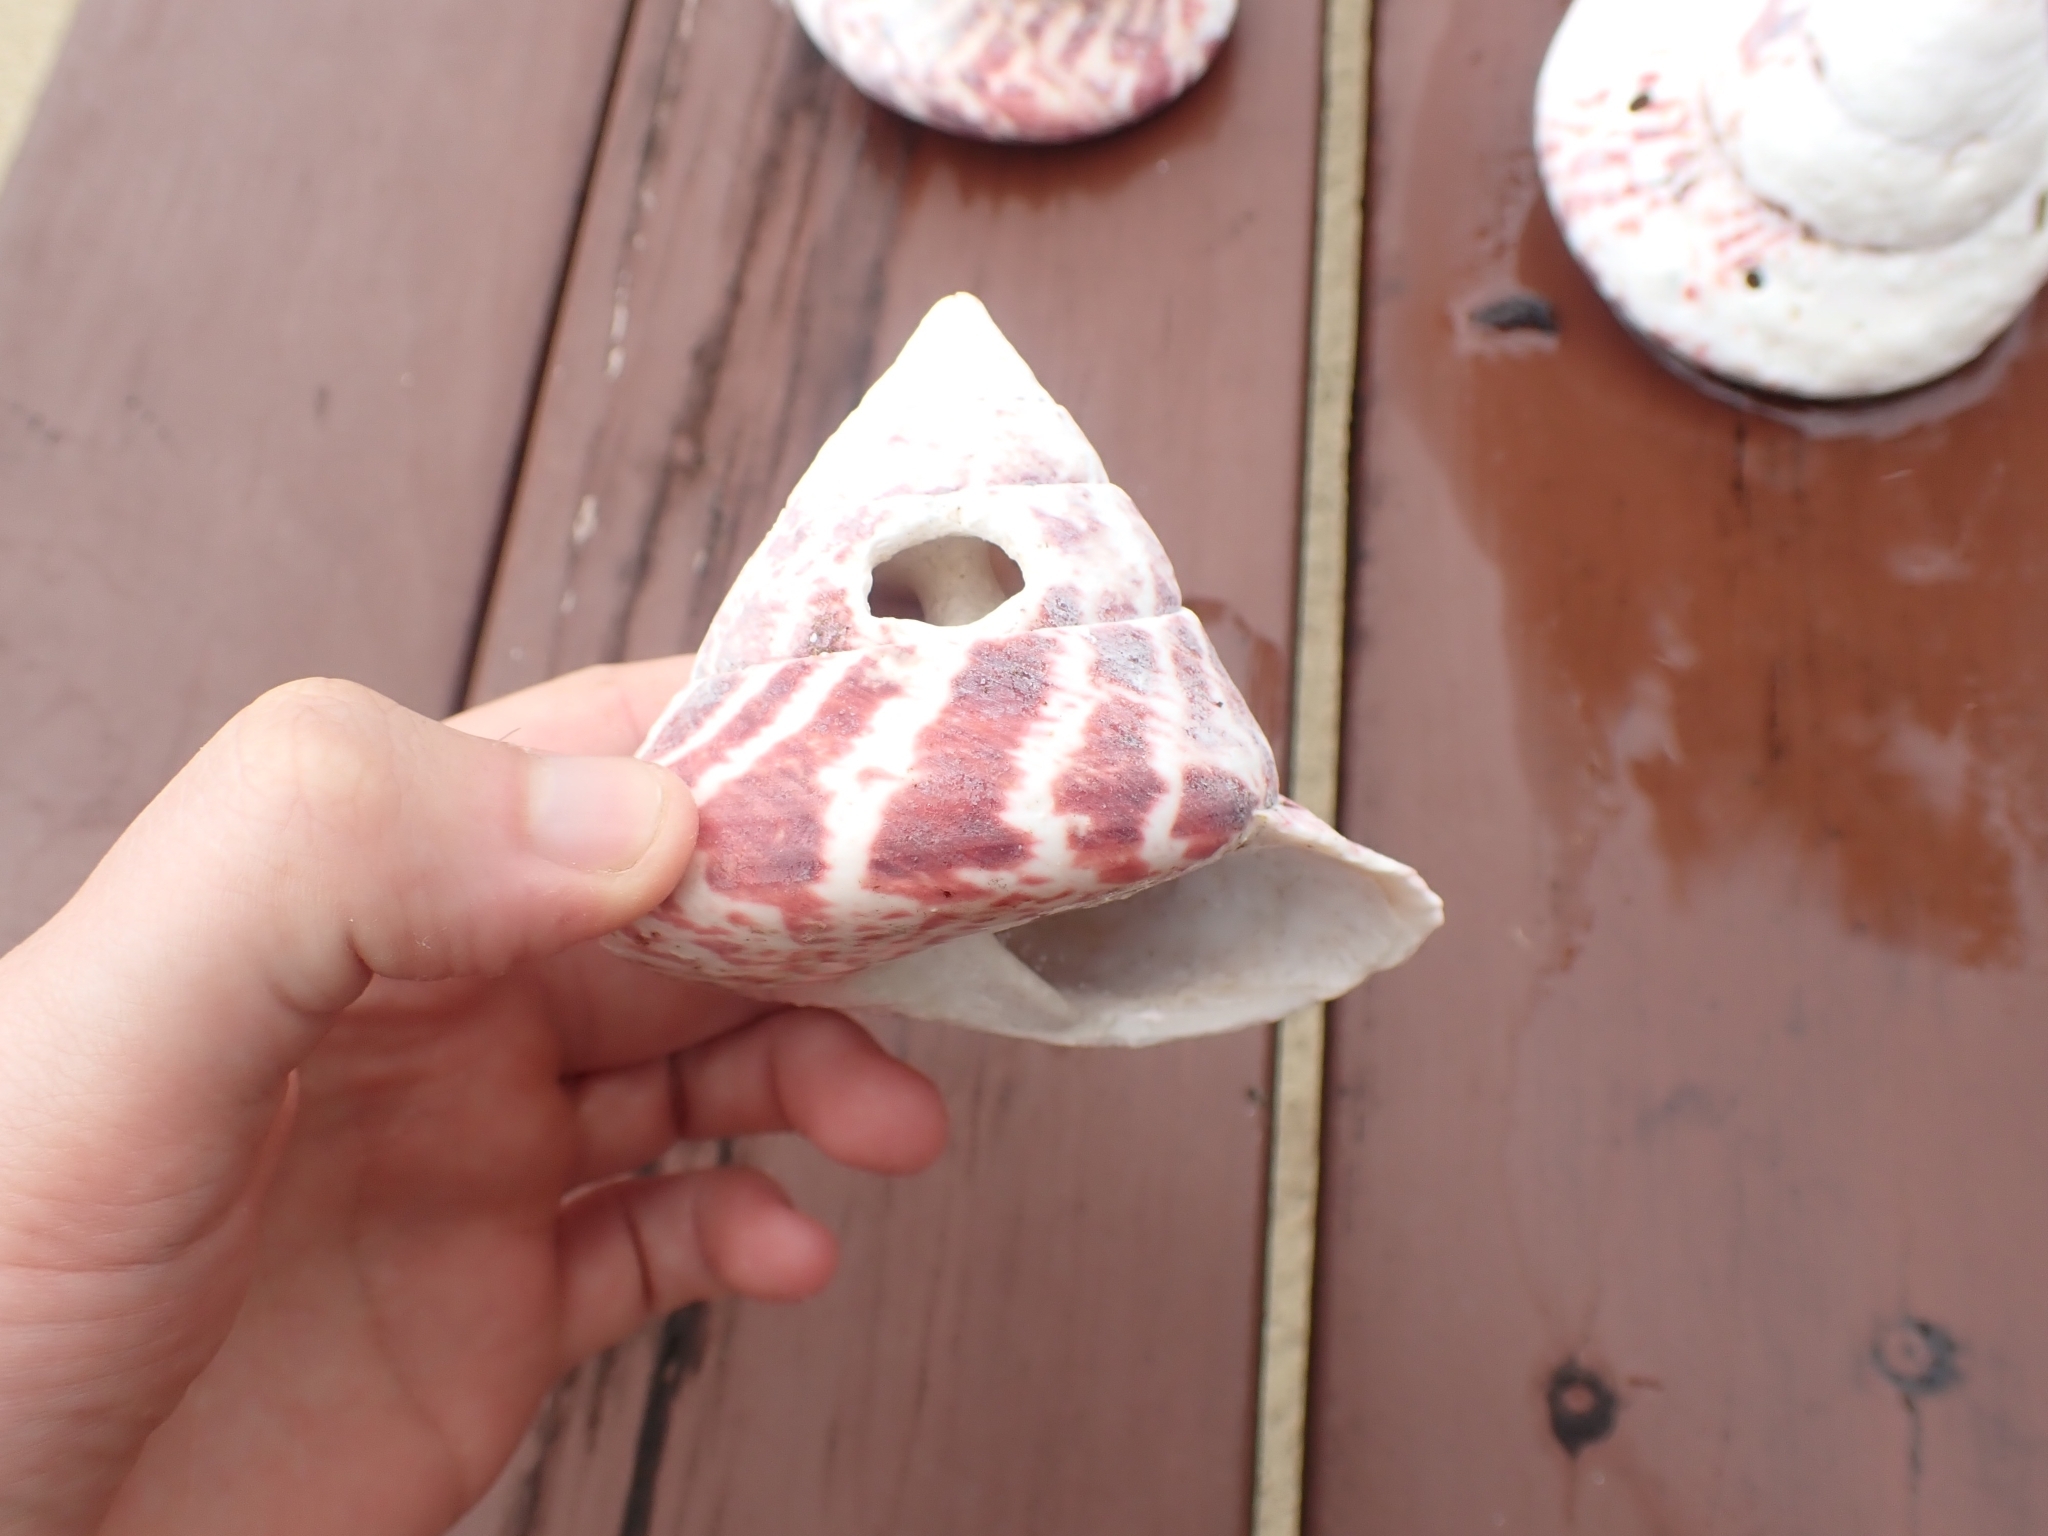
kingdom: Animalia
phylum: Mollusca
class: Gastropoda
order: Trochida
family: Tegulidae
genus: Rochia
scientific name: Rochia nilotica
